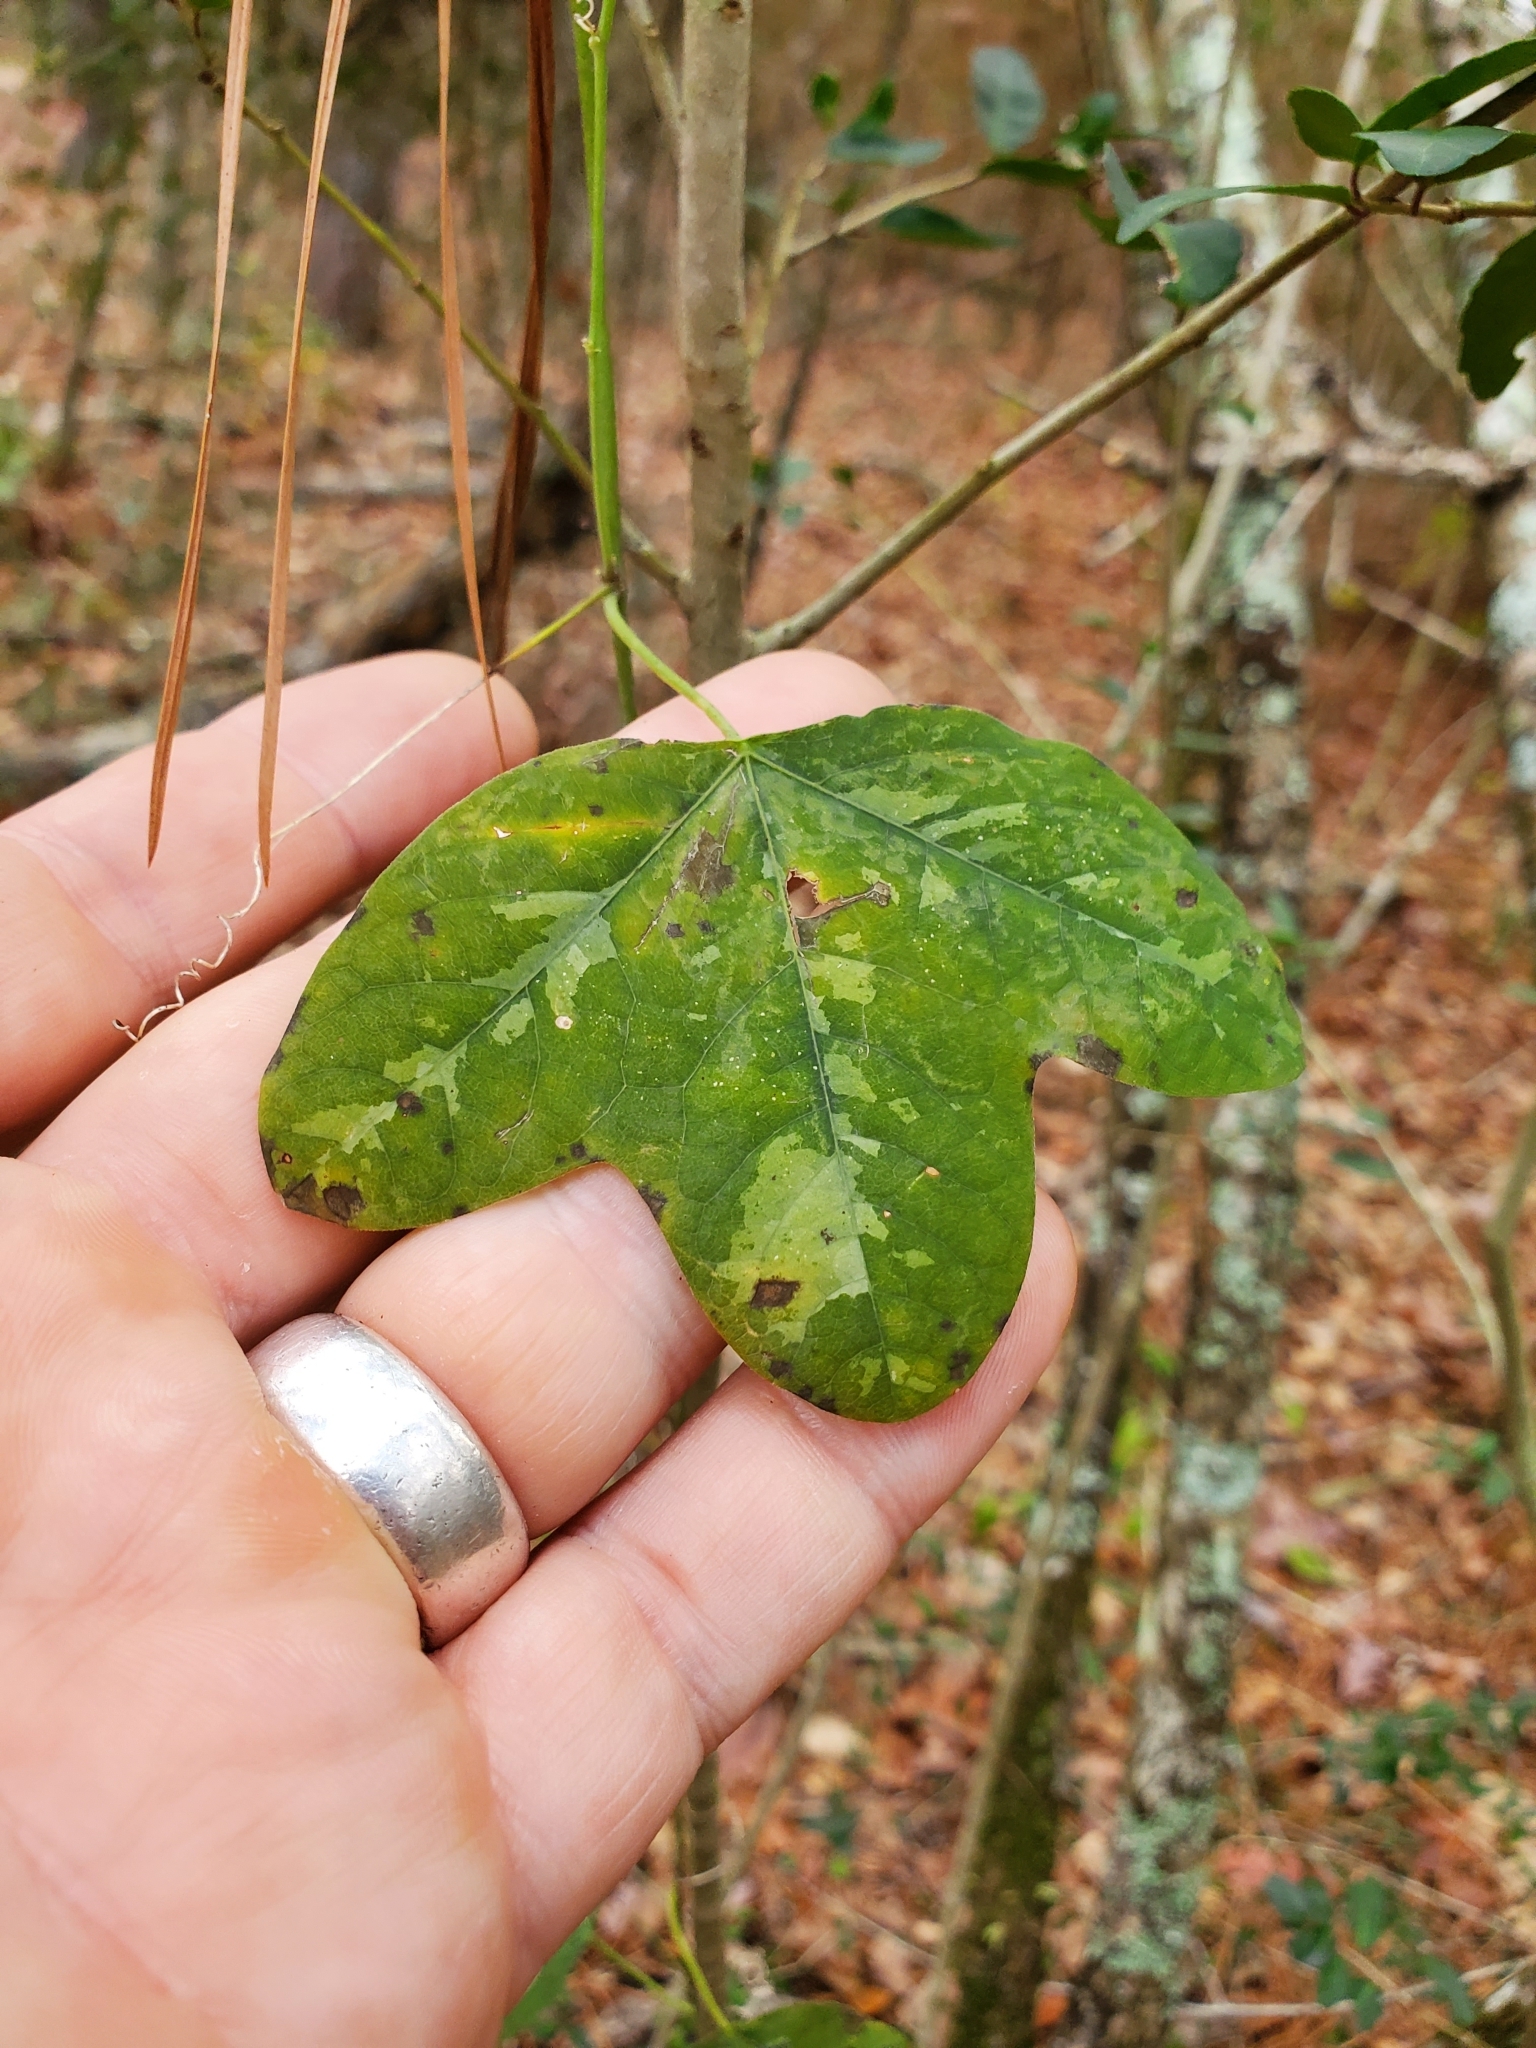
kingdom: Plantae
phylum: Tracheophyta
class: Magnoliopsida
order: Malpighiales
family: Passifloraceae
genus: Passiflora
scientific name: Passiflora lutea
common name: Yellow passionflower
